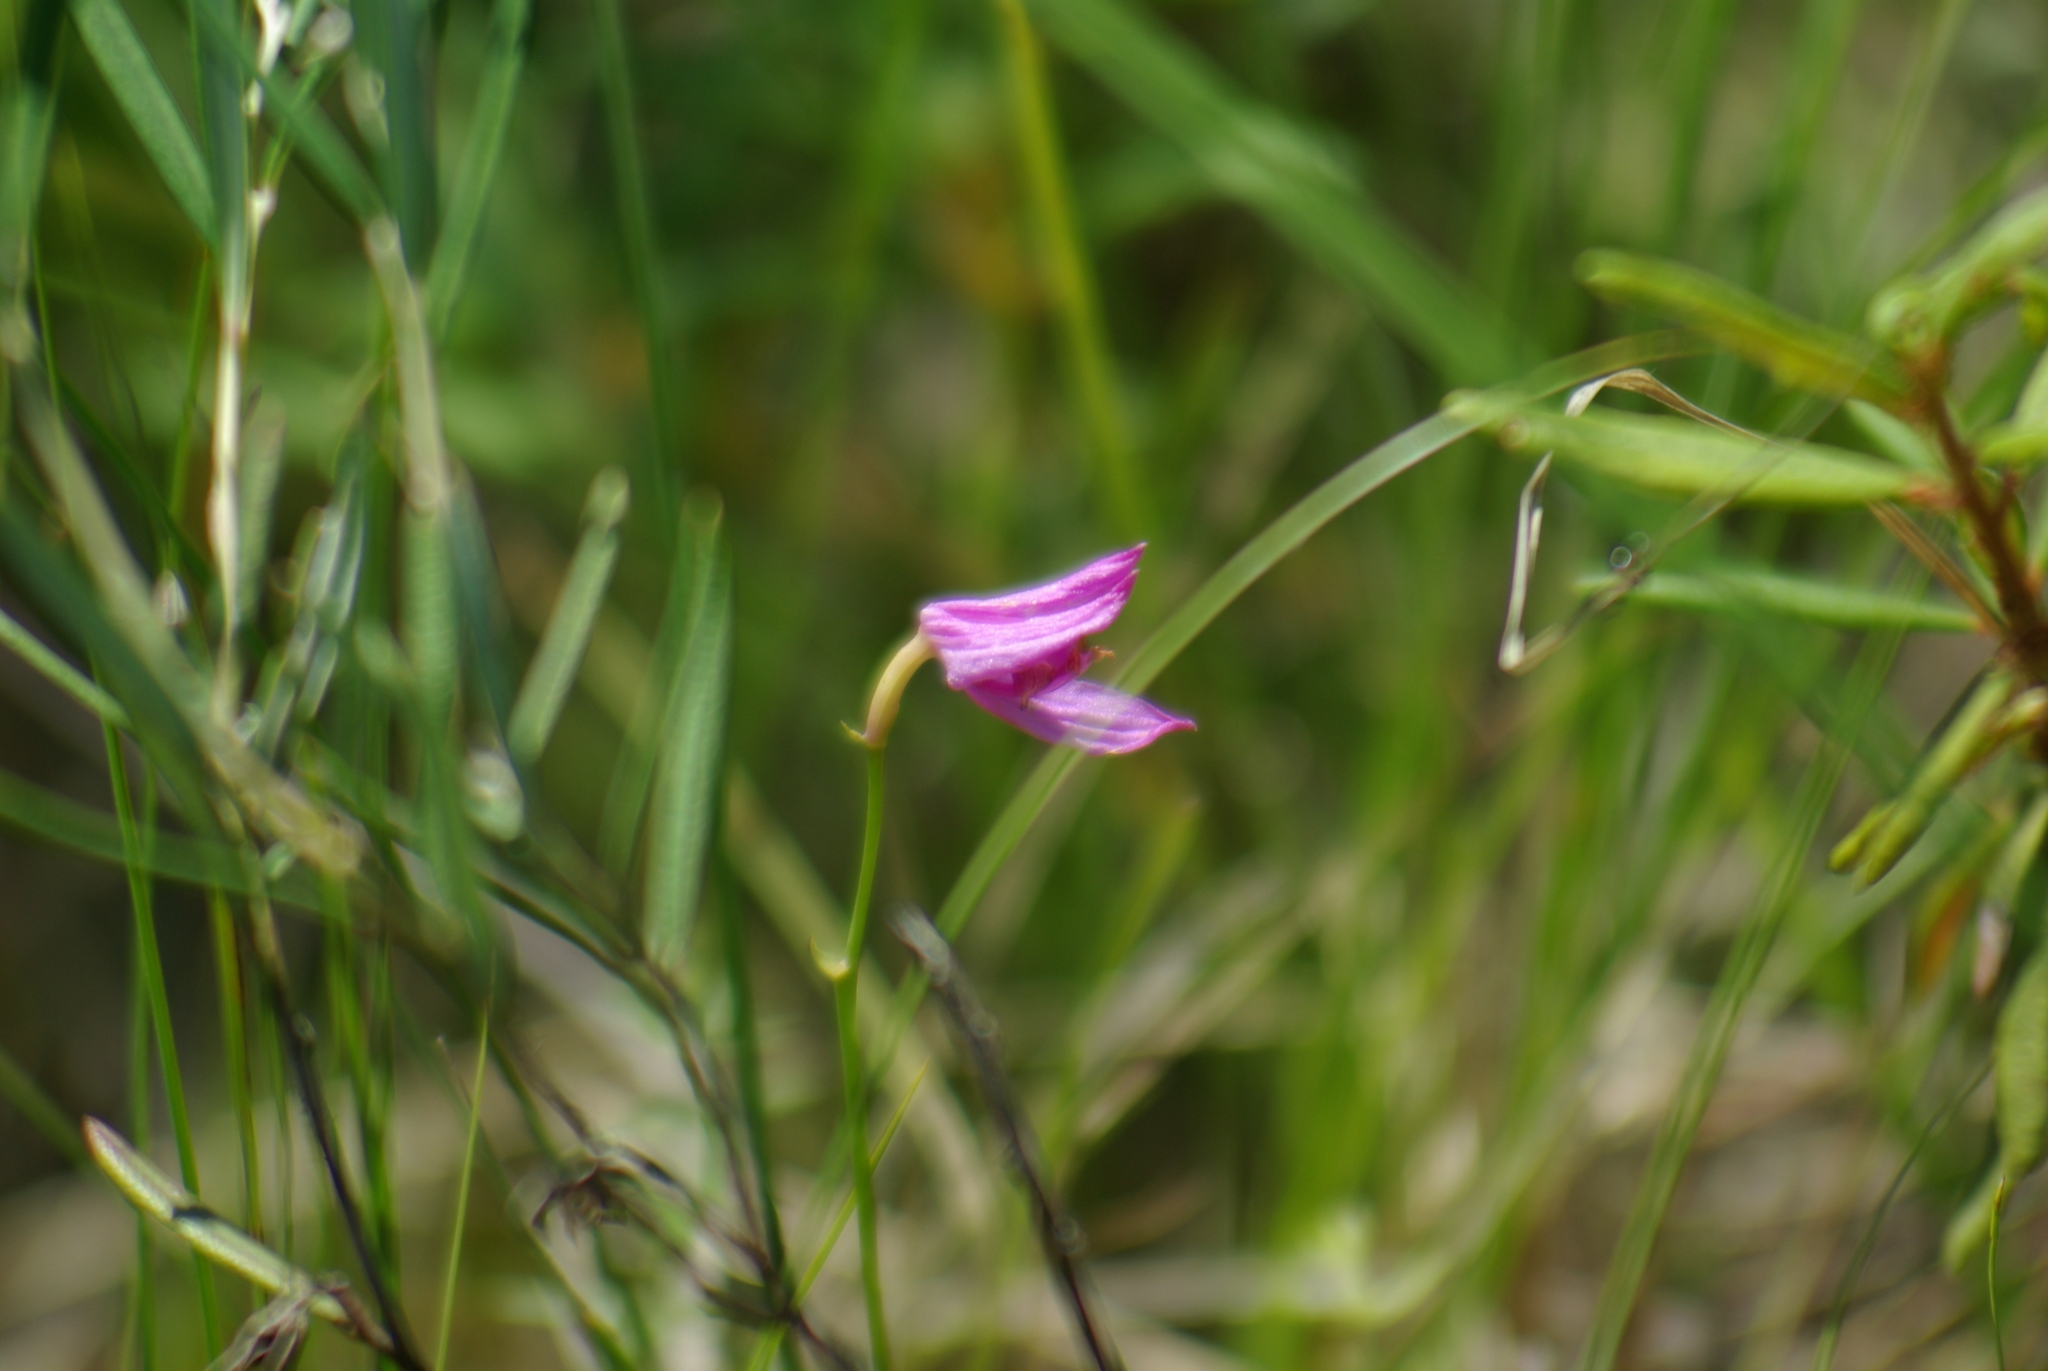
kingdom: Plantae
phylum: Tracheophyta
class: Liliopsida
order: Asparagales
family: Orchidaceae
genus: Calopogon
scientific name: Calopogon tuberosus
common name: Grass-pink
